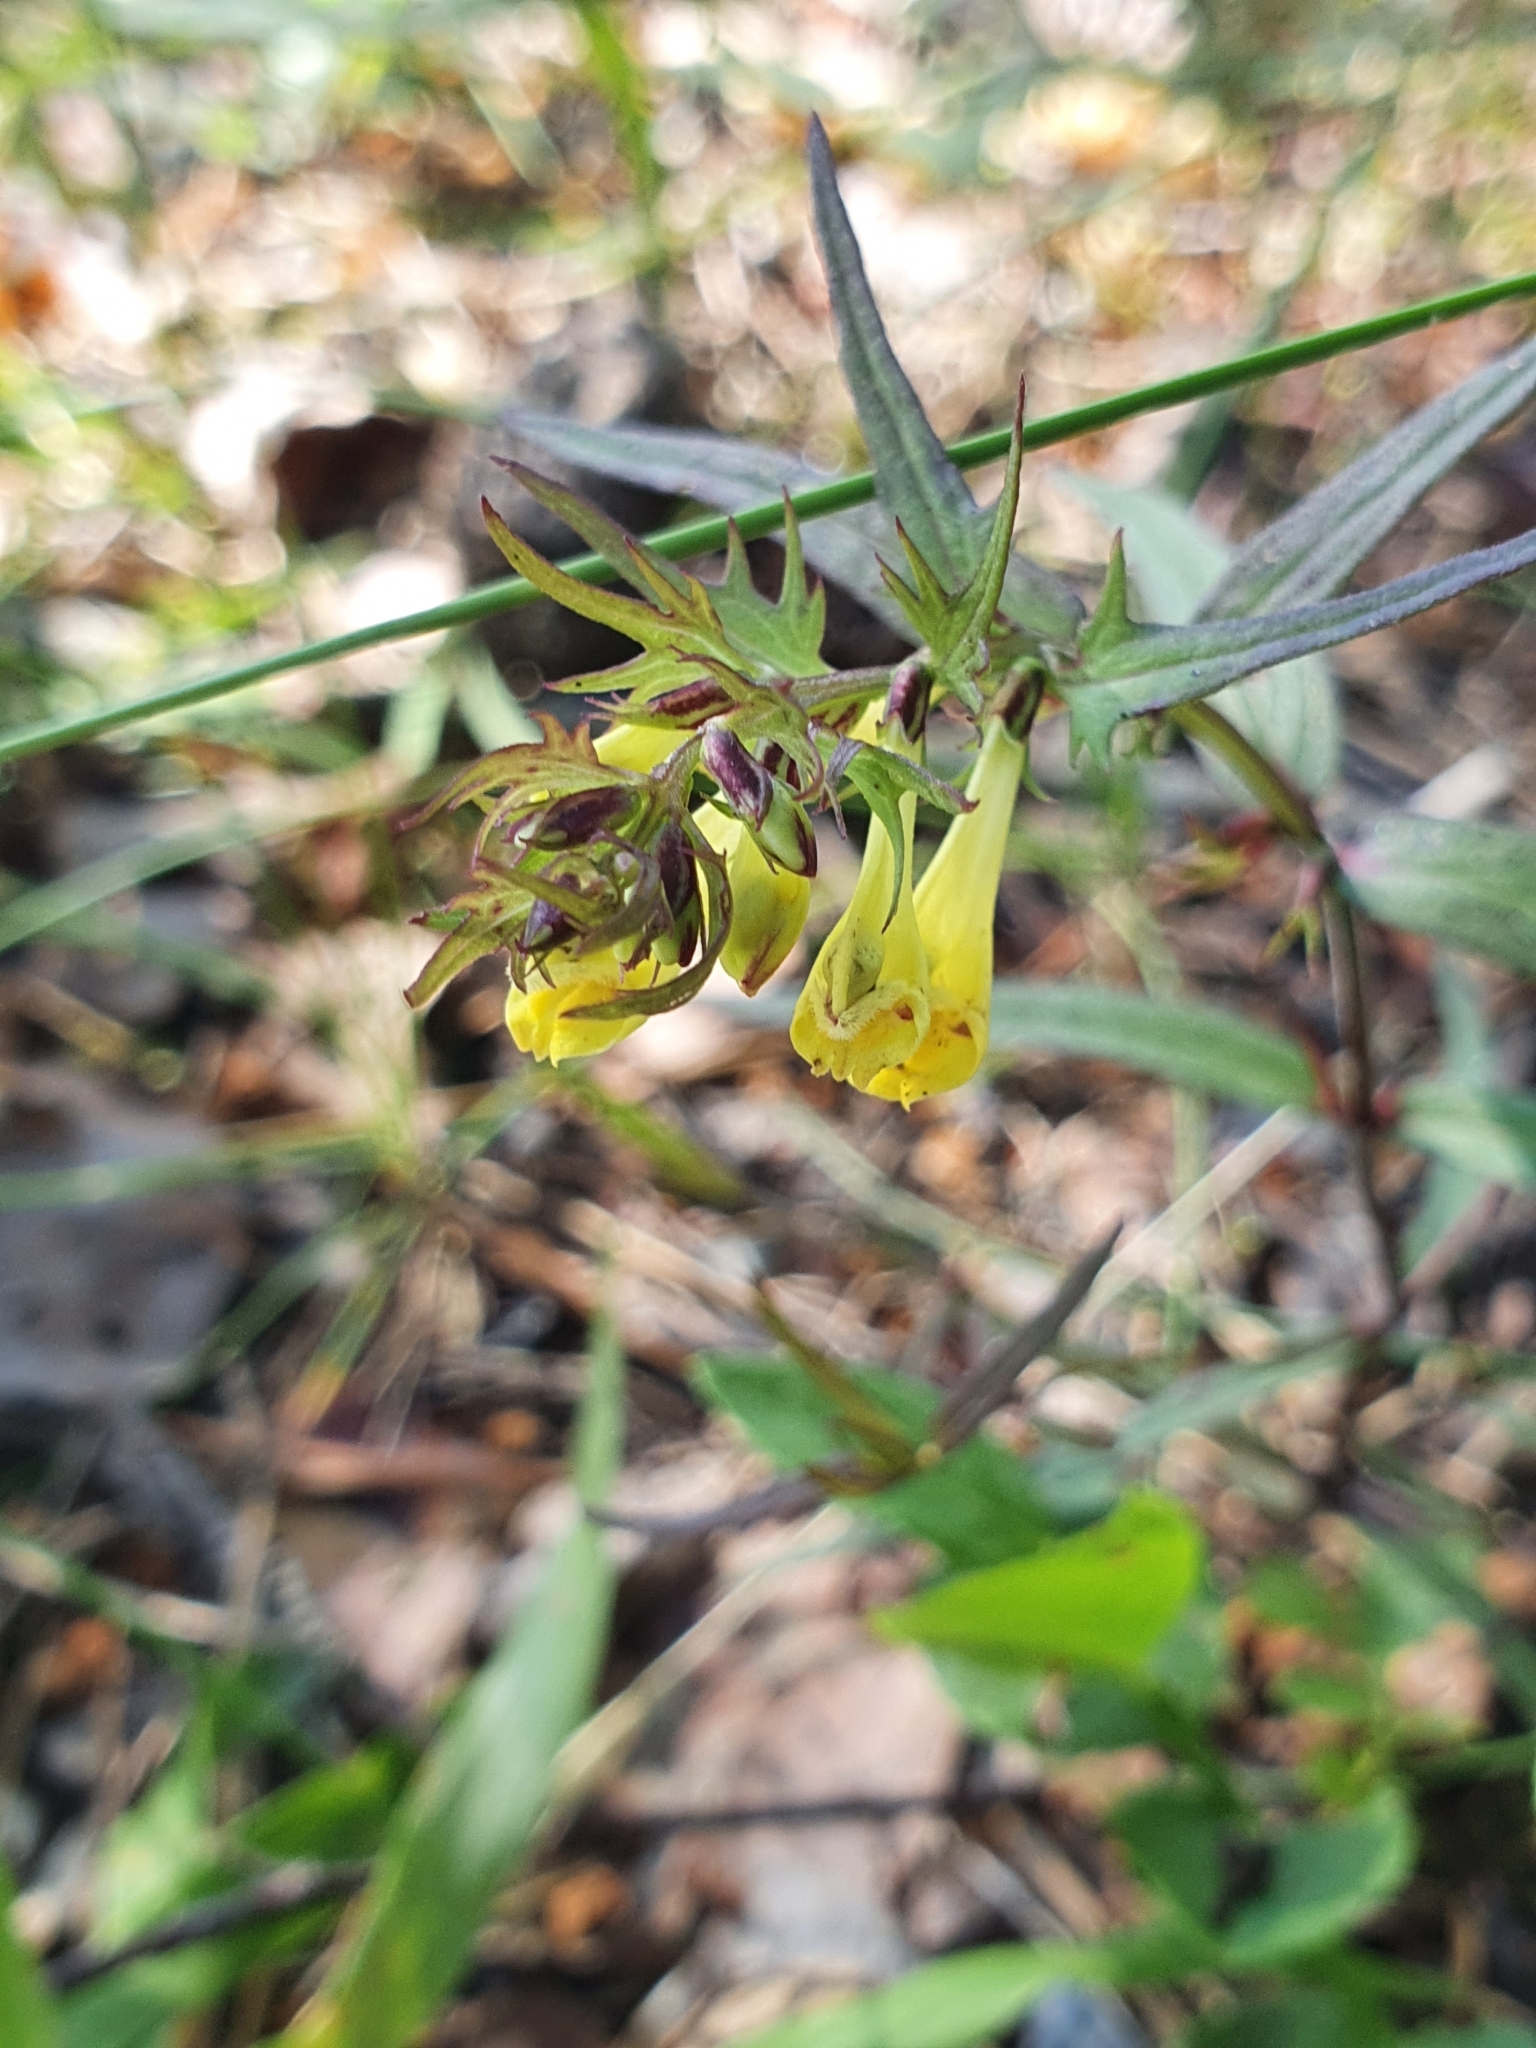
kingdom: Plantae
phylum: Tracheophyta
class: Magnoliopsida
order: Lamiales
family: Orobanchaceae
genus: Melampyrum
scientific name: Melampyrum pratense
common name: Common cow-wheat
